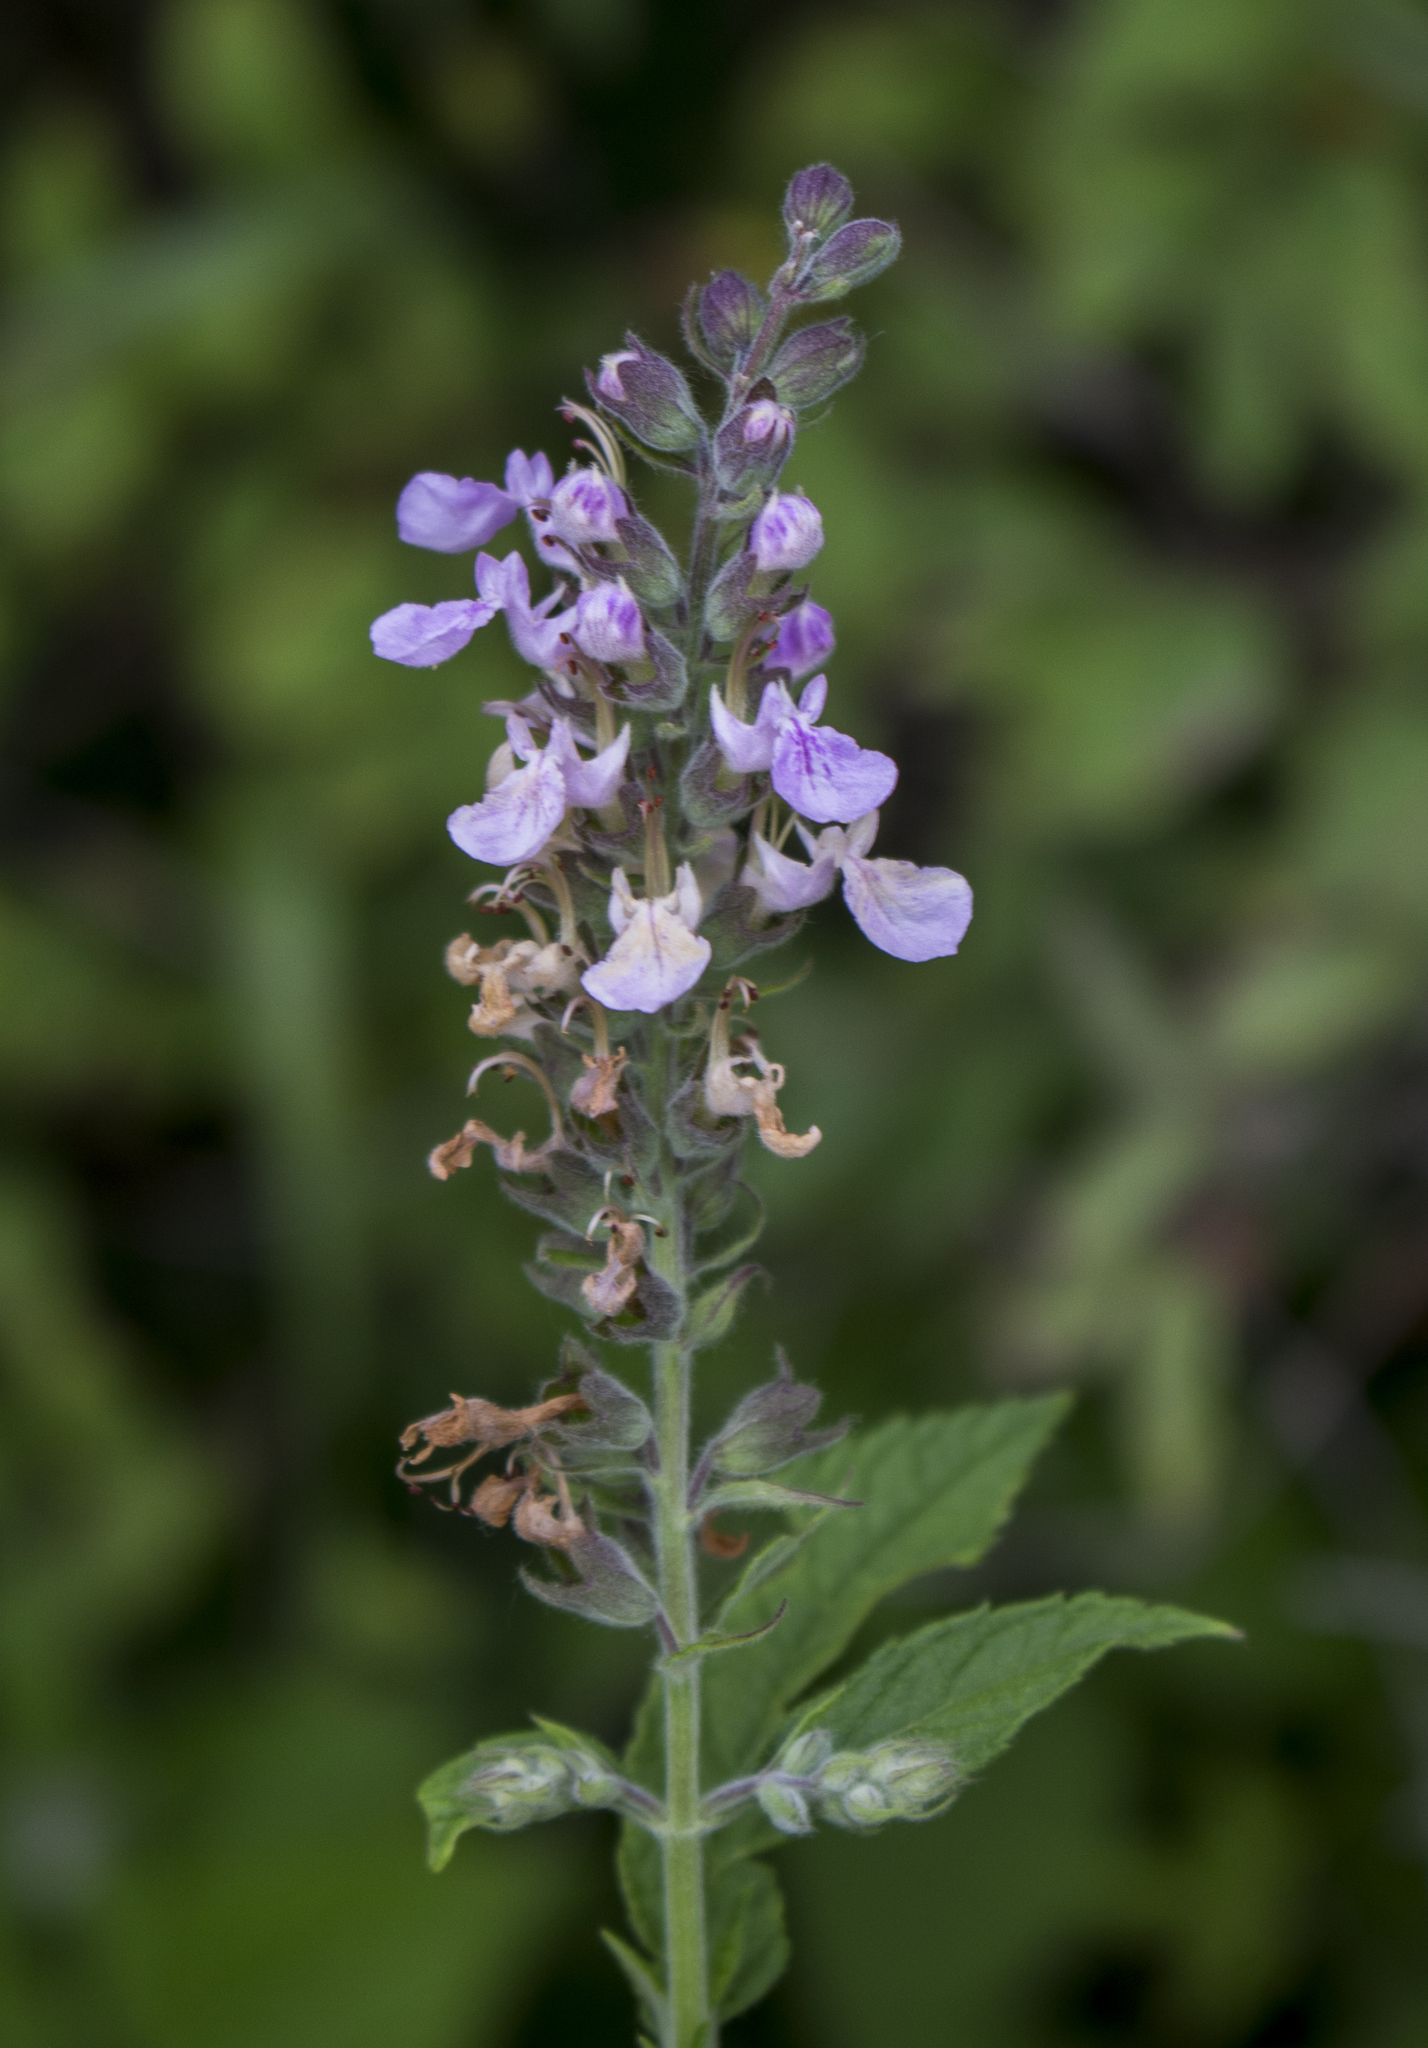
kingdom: Plantae
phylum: Tracheophyta
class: Magnoliopsida
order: Lamiales
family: Lamiaceae
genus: Teucrium
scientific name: Teucrium canadense
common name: American germander
